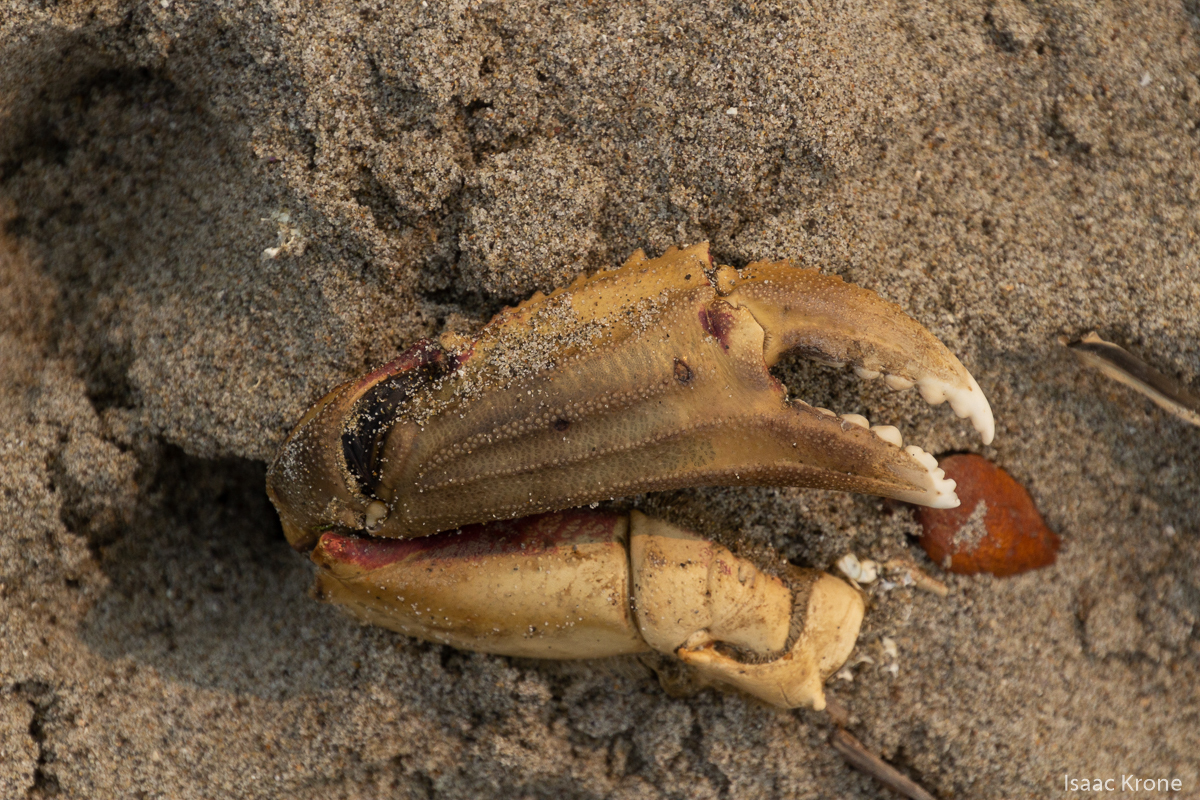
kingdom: Animalia
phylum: Arthropoda
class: Malacostraca
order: Decapoda
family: Cancridae
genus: Metacarcinus
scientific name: Metacarcinus magister
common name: Californian crab
